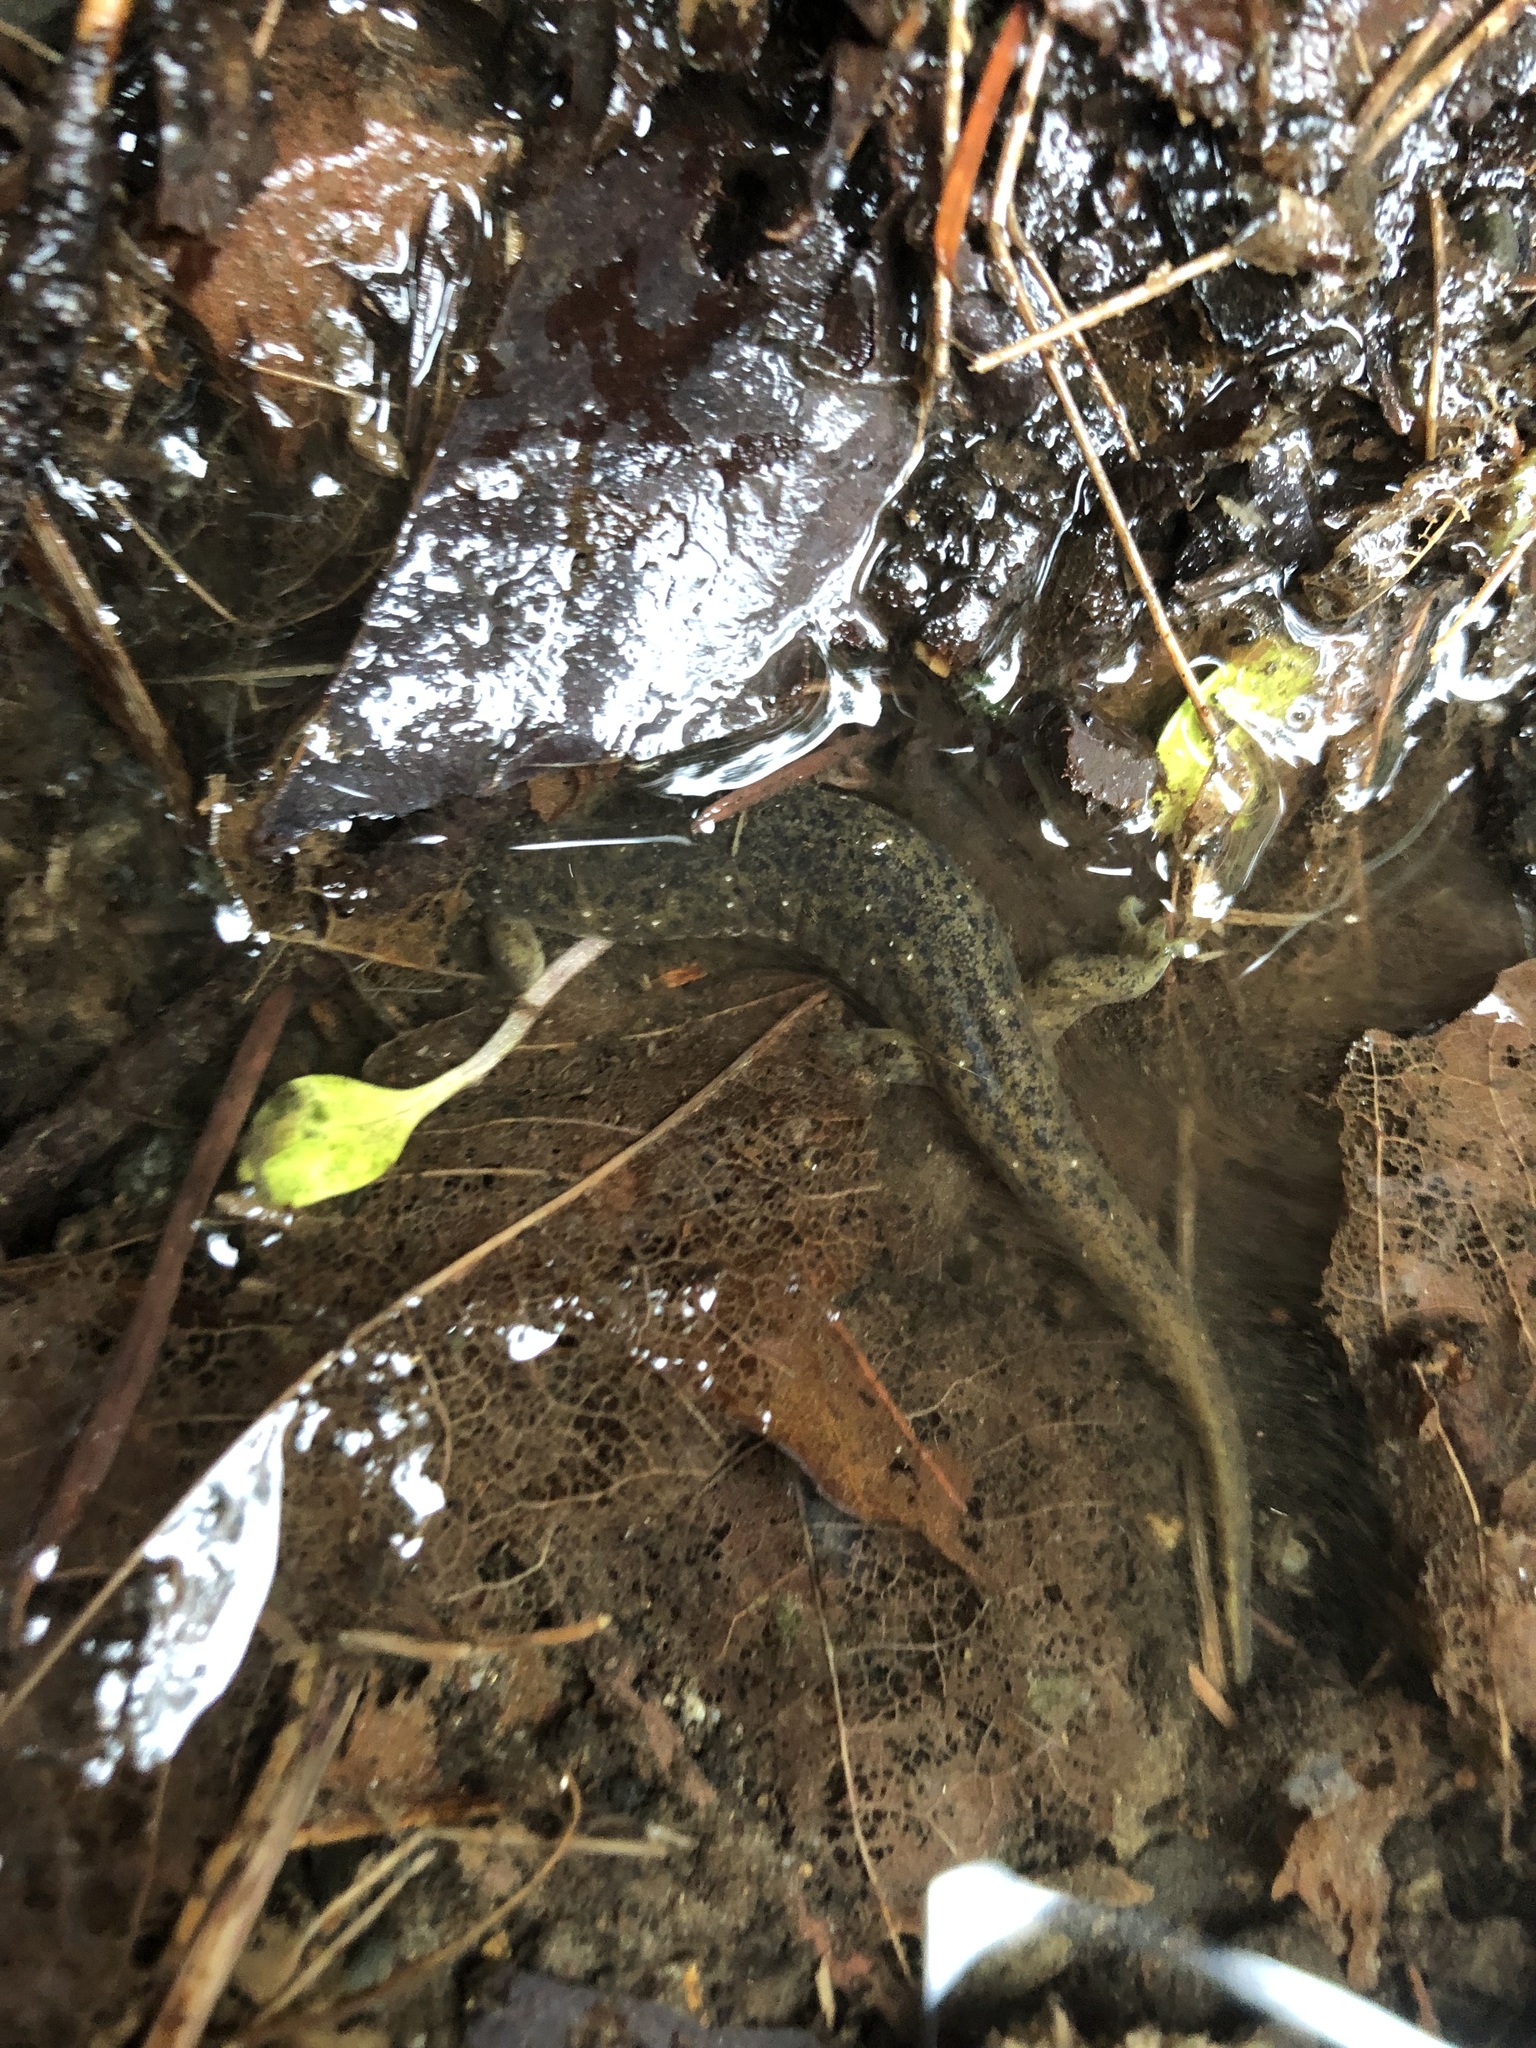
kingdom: Animalia
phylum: Chordata
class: Amphibia
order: Caudata
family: Rhyacotritonidae
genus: Rhyacotriton
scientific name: Rhyacotriton cascadae
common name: Cascade torrent salamander
